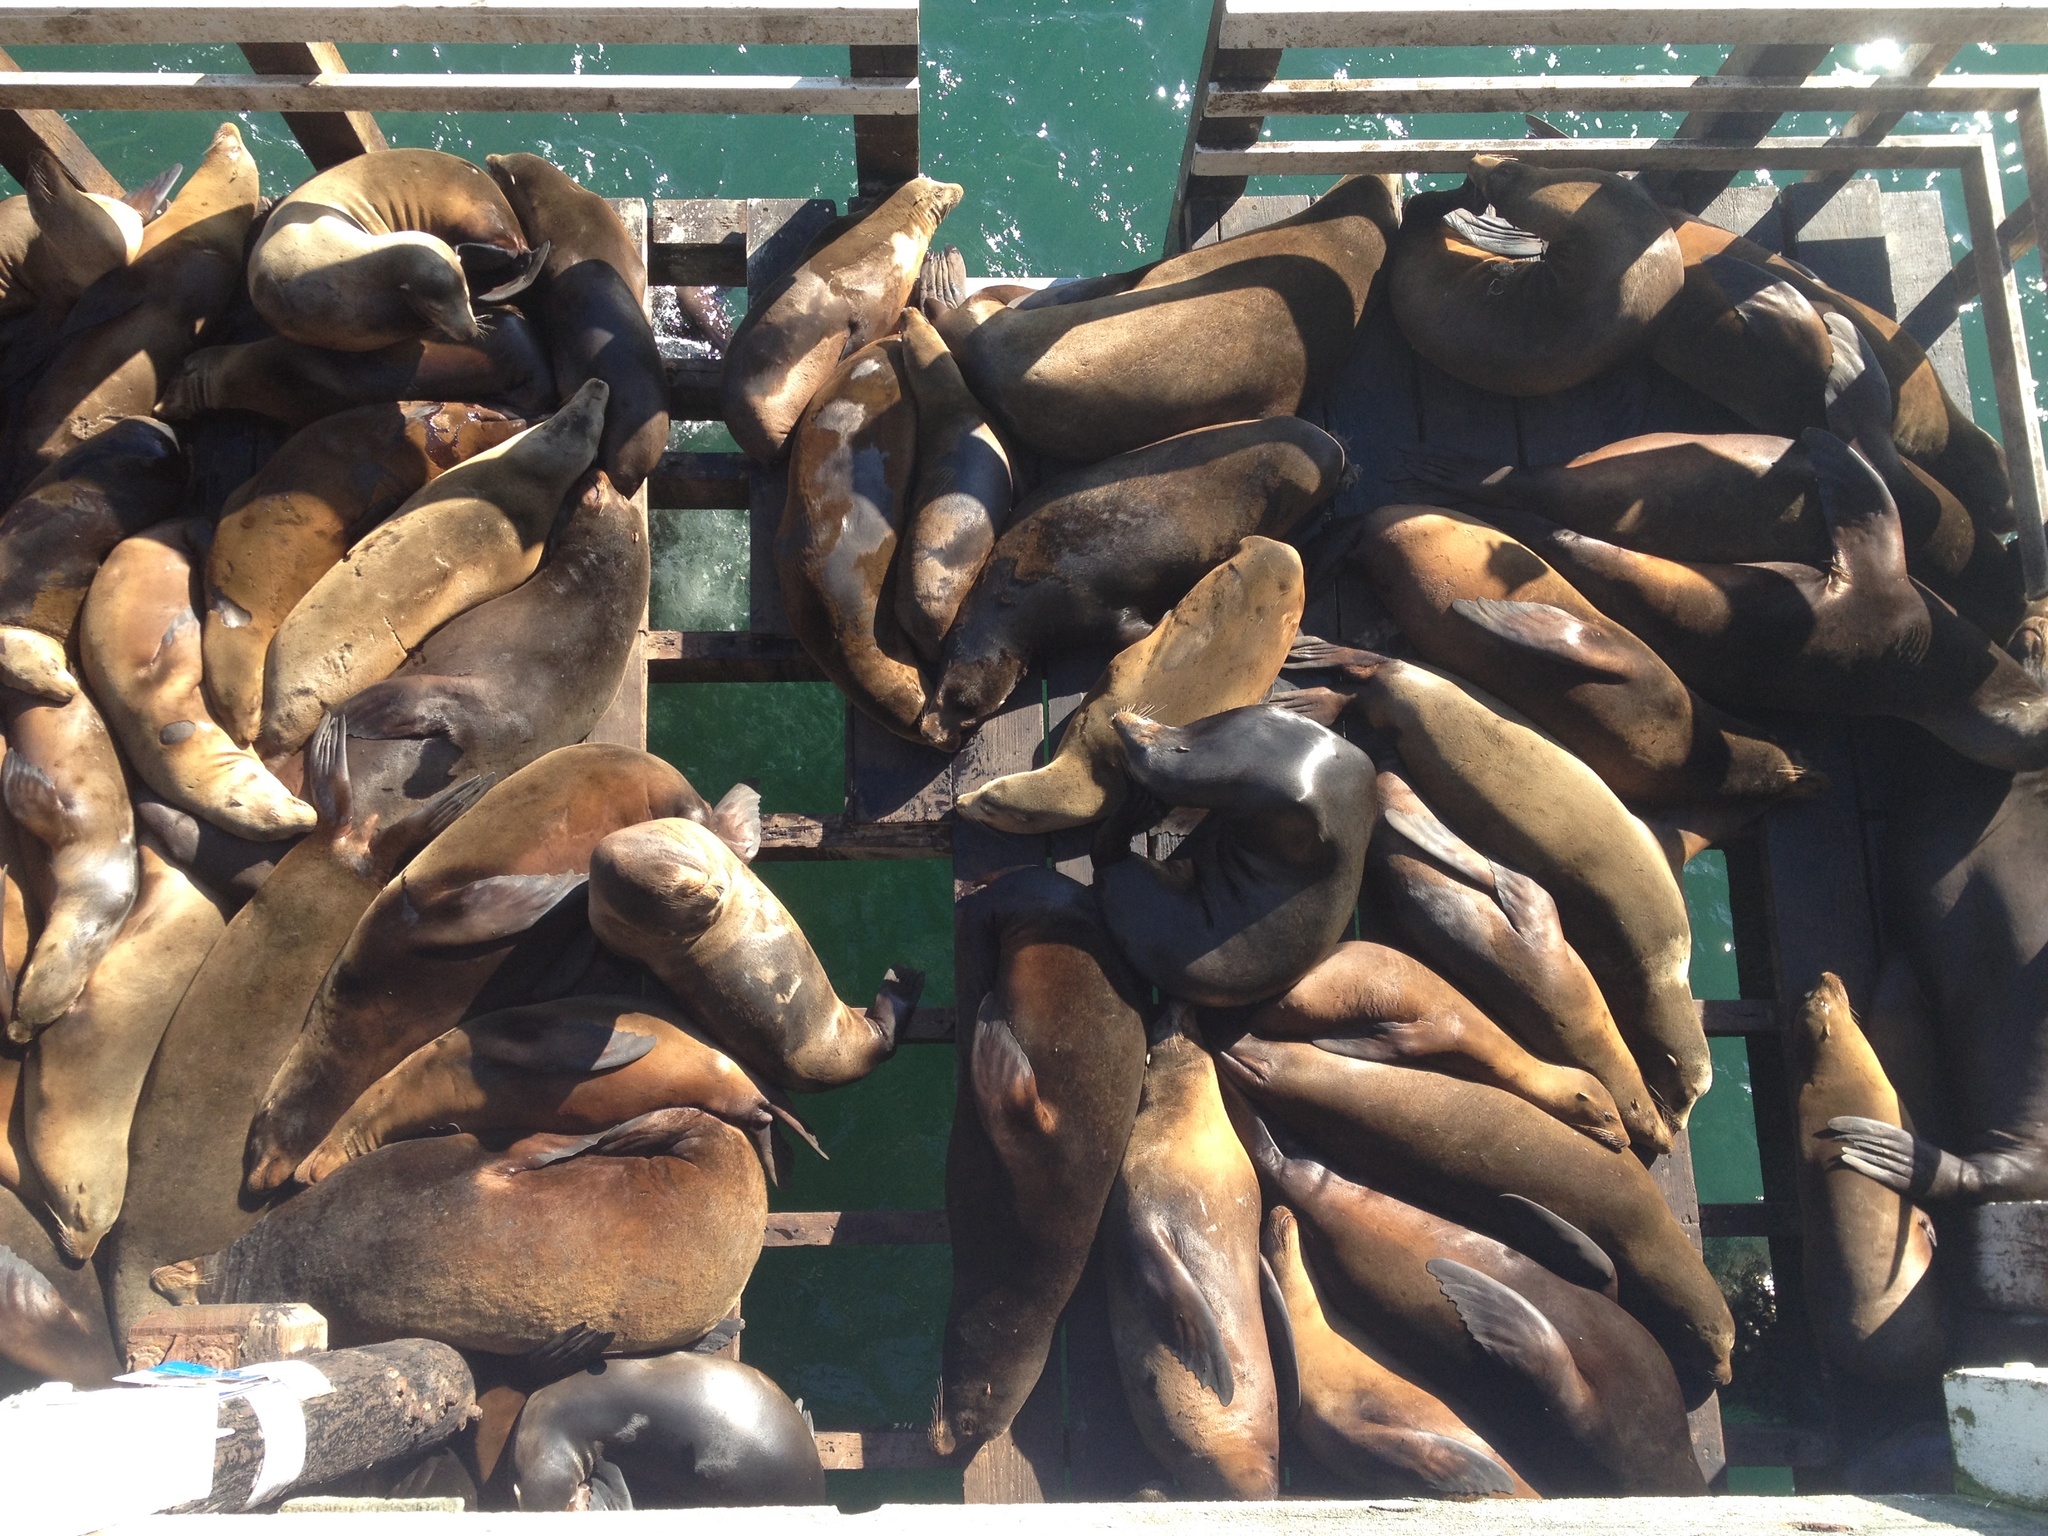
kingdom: Animalia
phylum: Chordata
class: Mammalia
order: Carnivora
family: Otariidae
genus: Zalophus
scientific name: Zalophus californianus
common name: California sea lion
